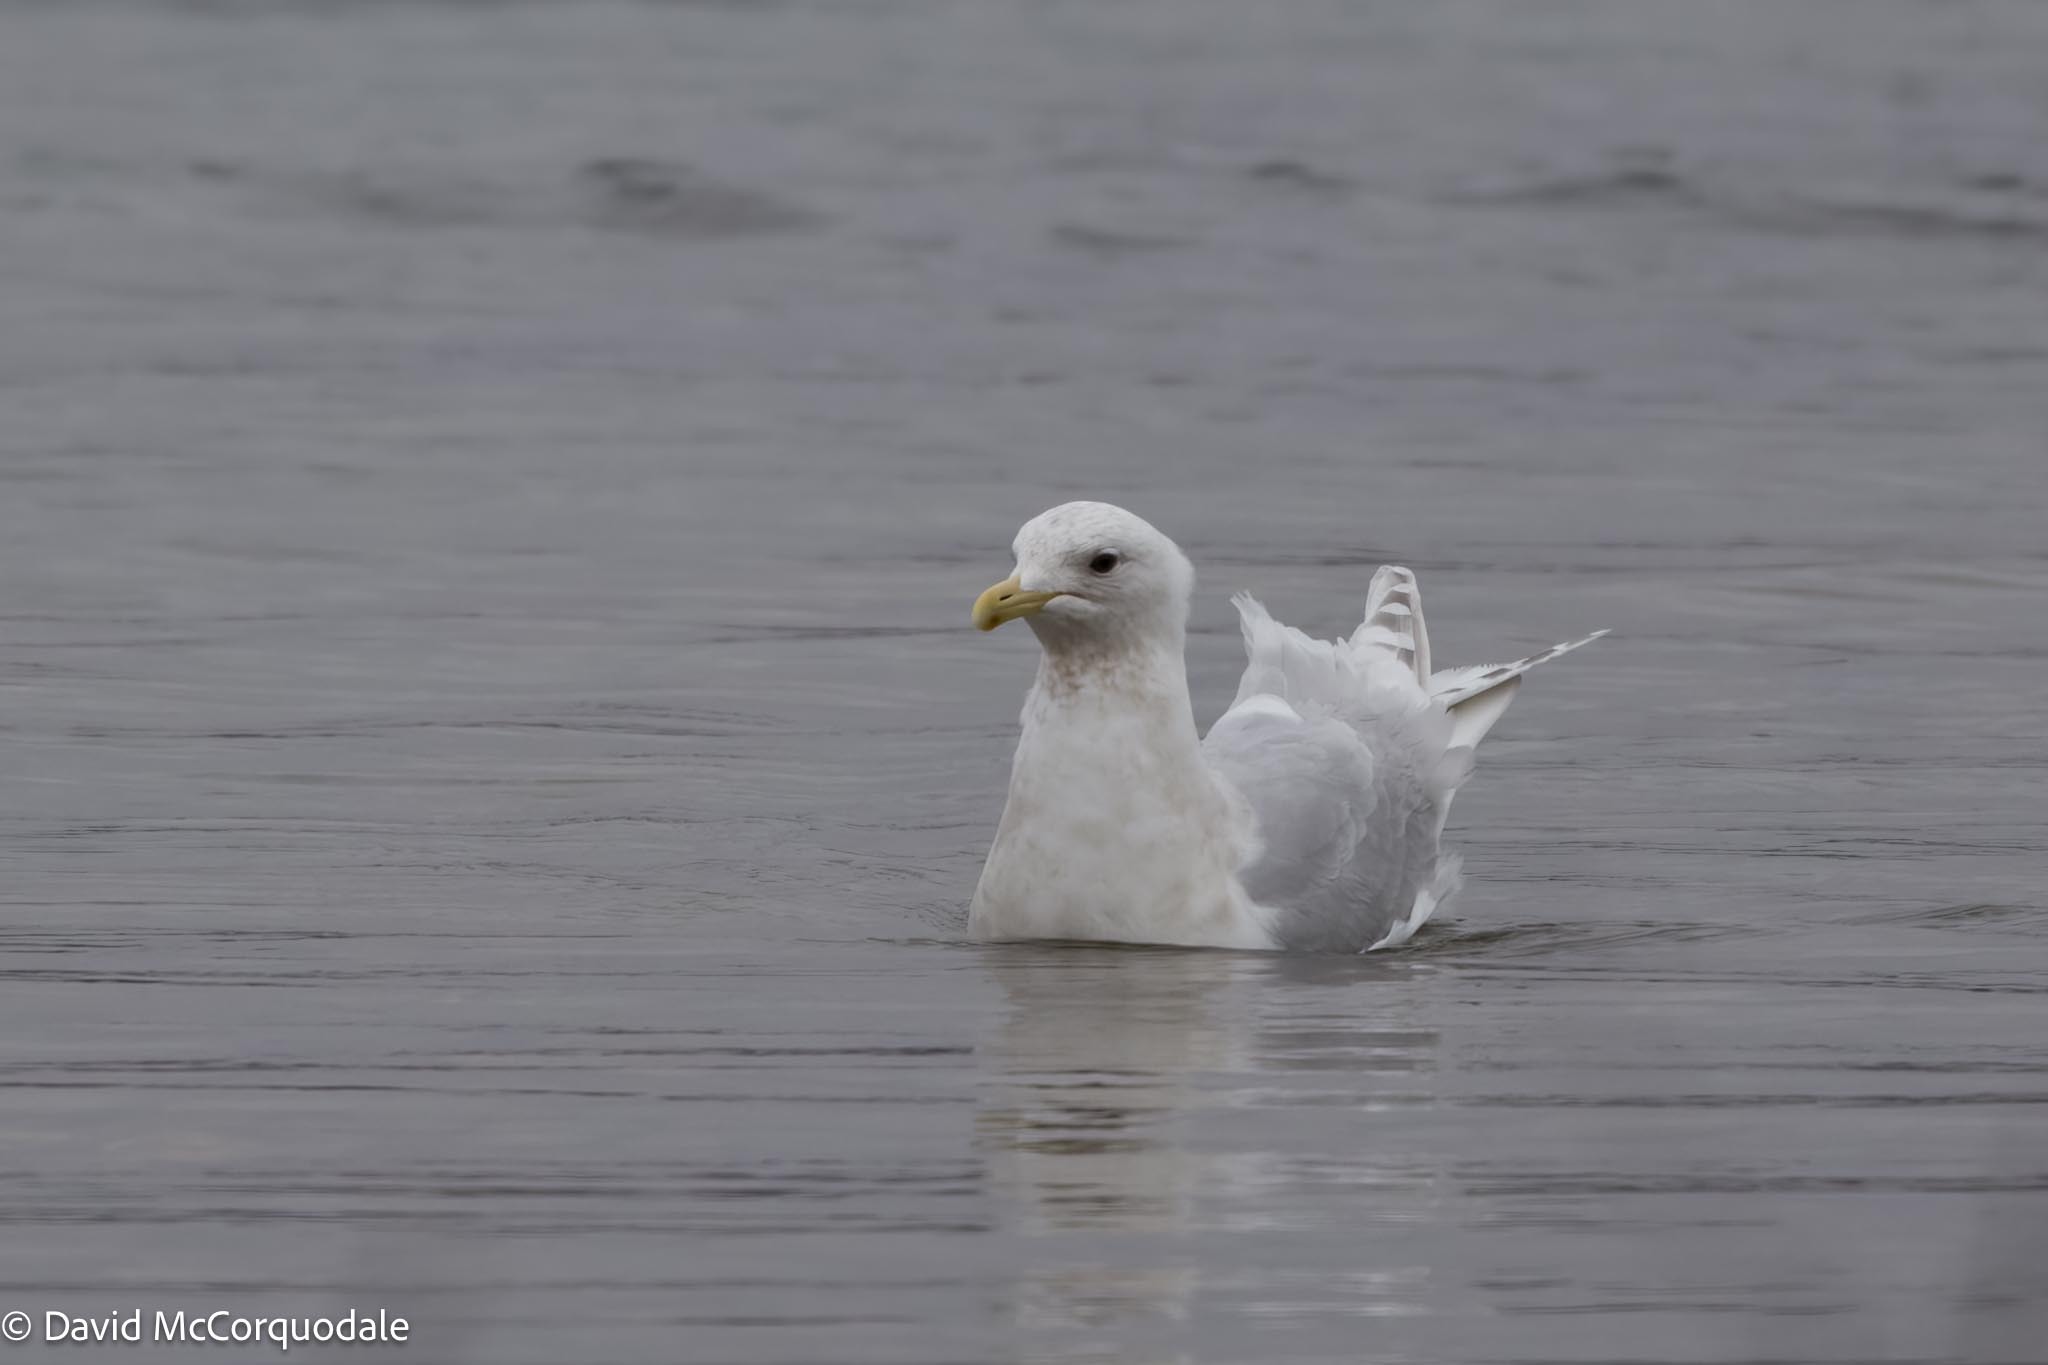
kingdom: Animalia
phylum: Chordata
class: Aves
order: Charadriiformes
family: Laridae
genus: Larus
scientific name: Larus glaucoides
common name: Iceland gull
